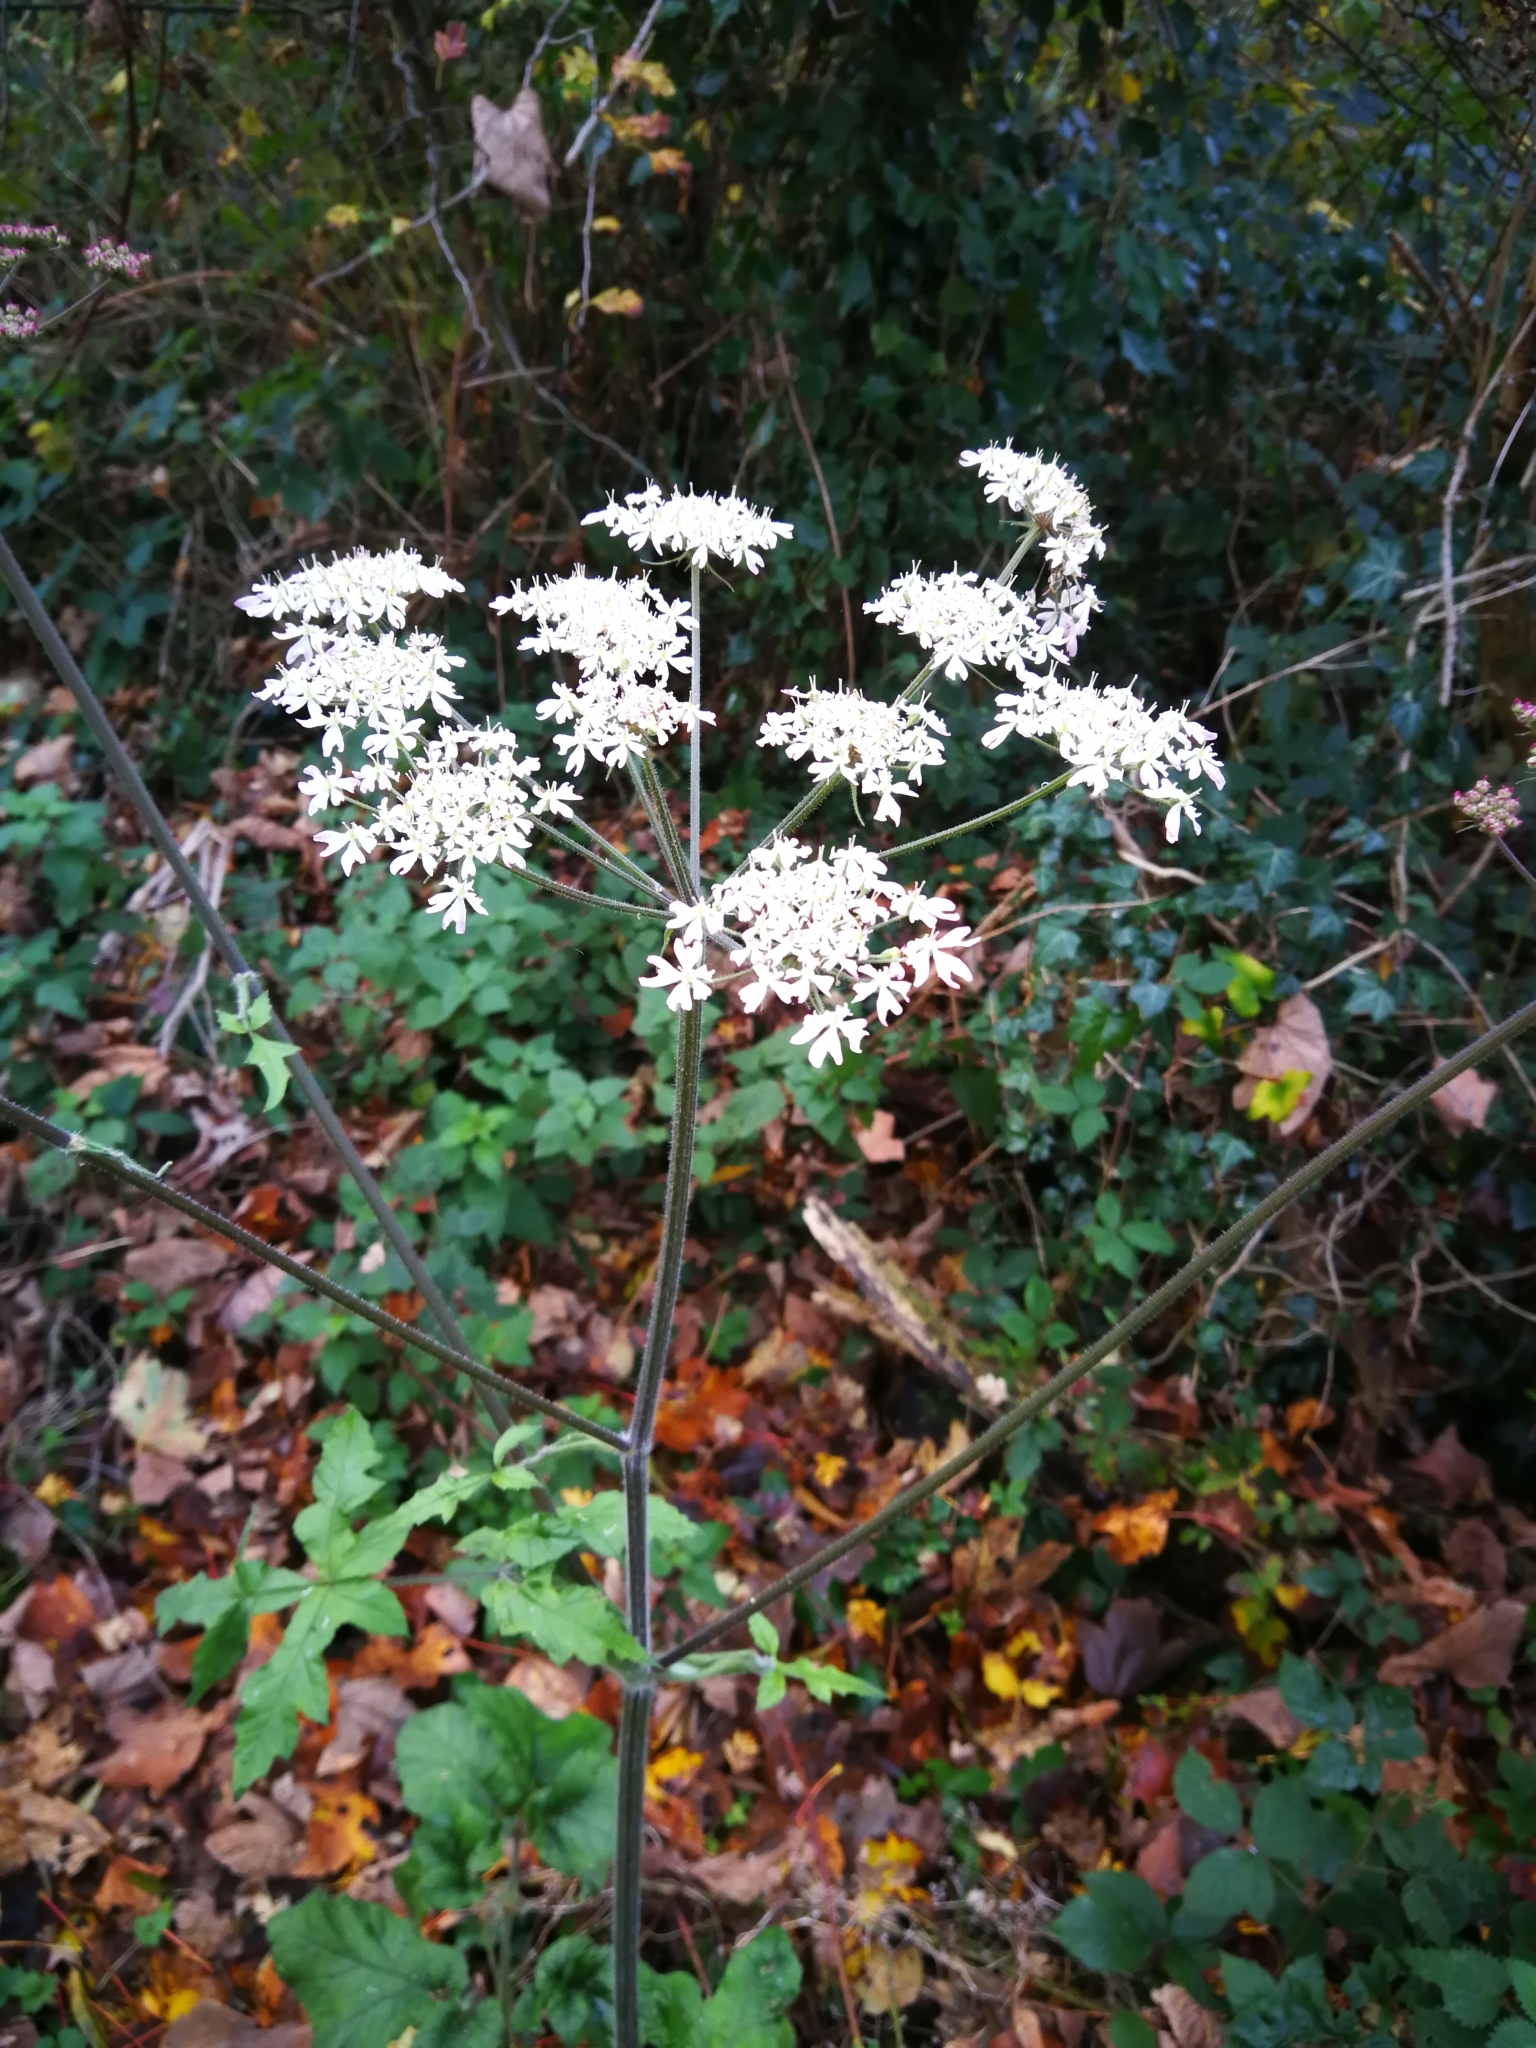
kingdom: Plantae
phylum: Tracheophyta
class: Magnoliopsida
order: Apiales
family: Apiaceae
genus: Heracleum
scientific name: Heracleum sphondylium
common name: Hogweed
